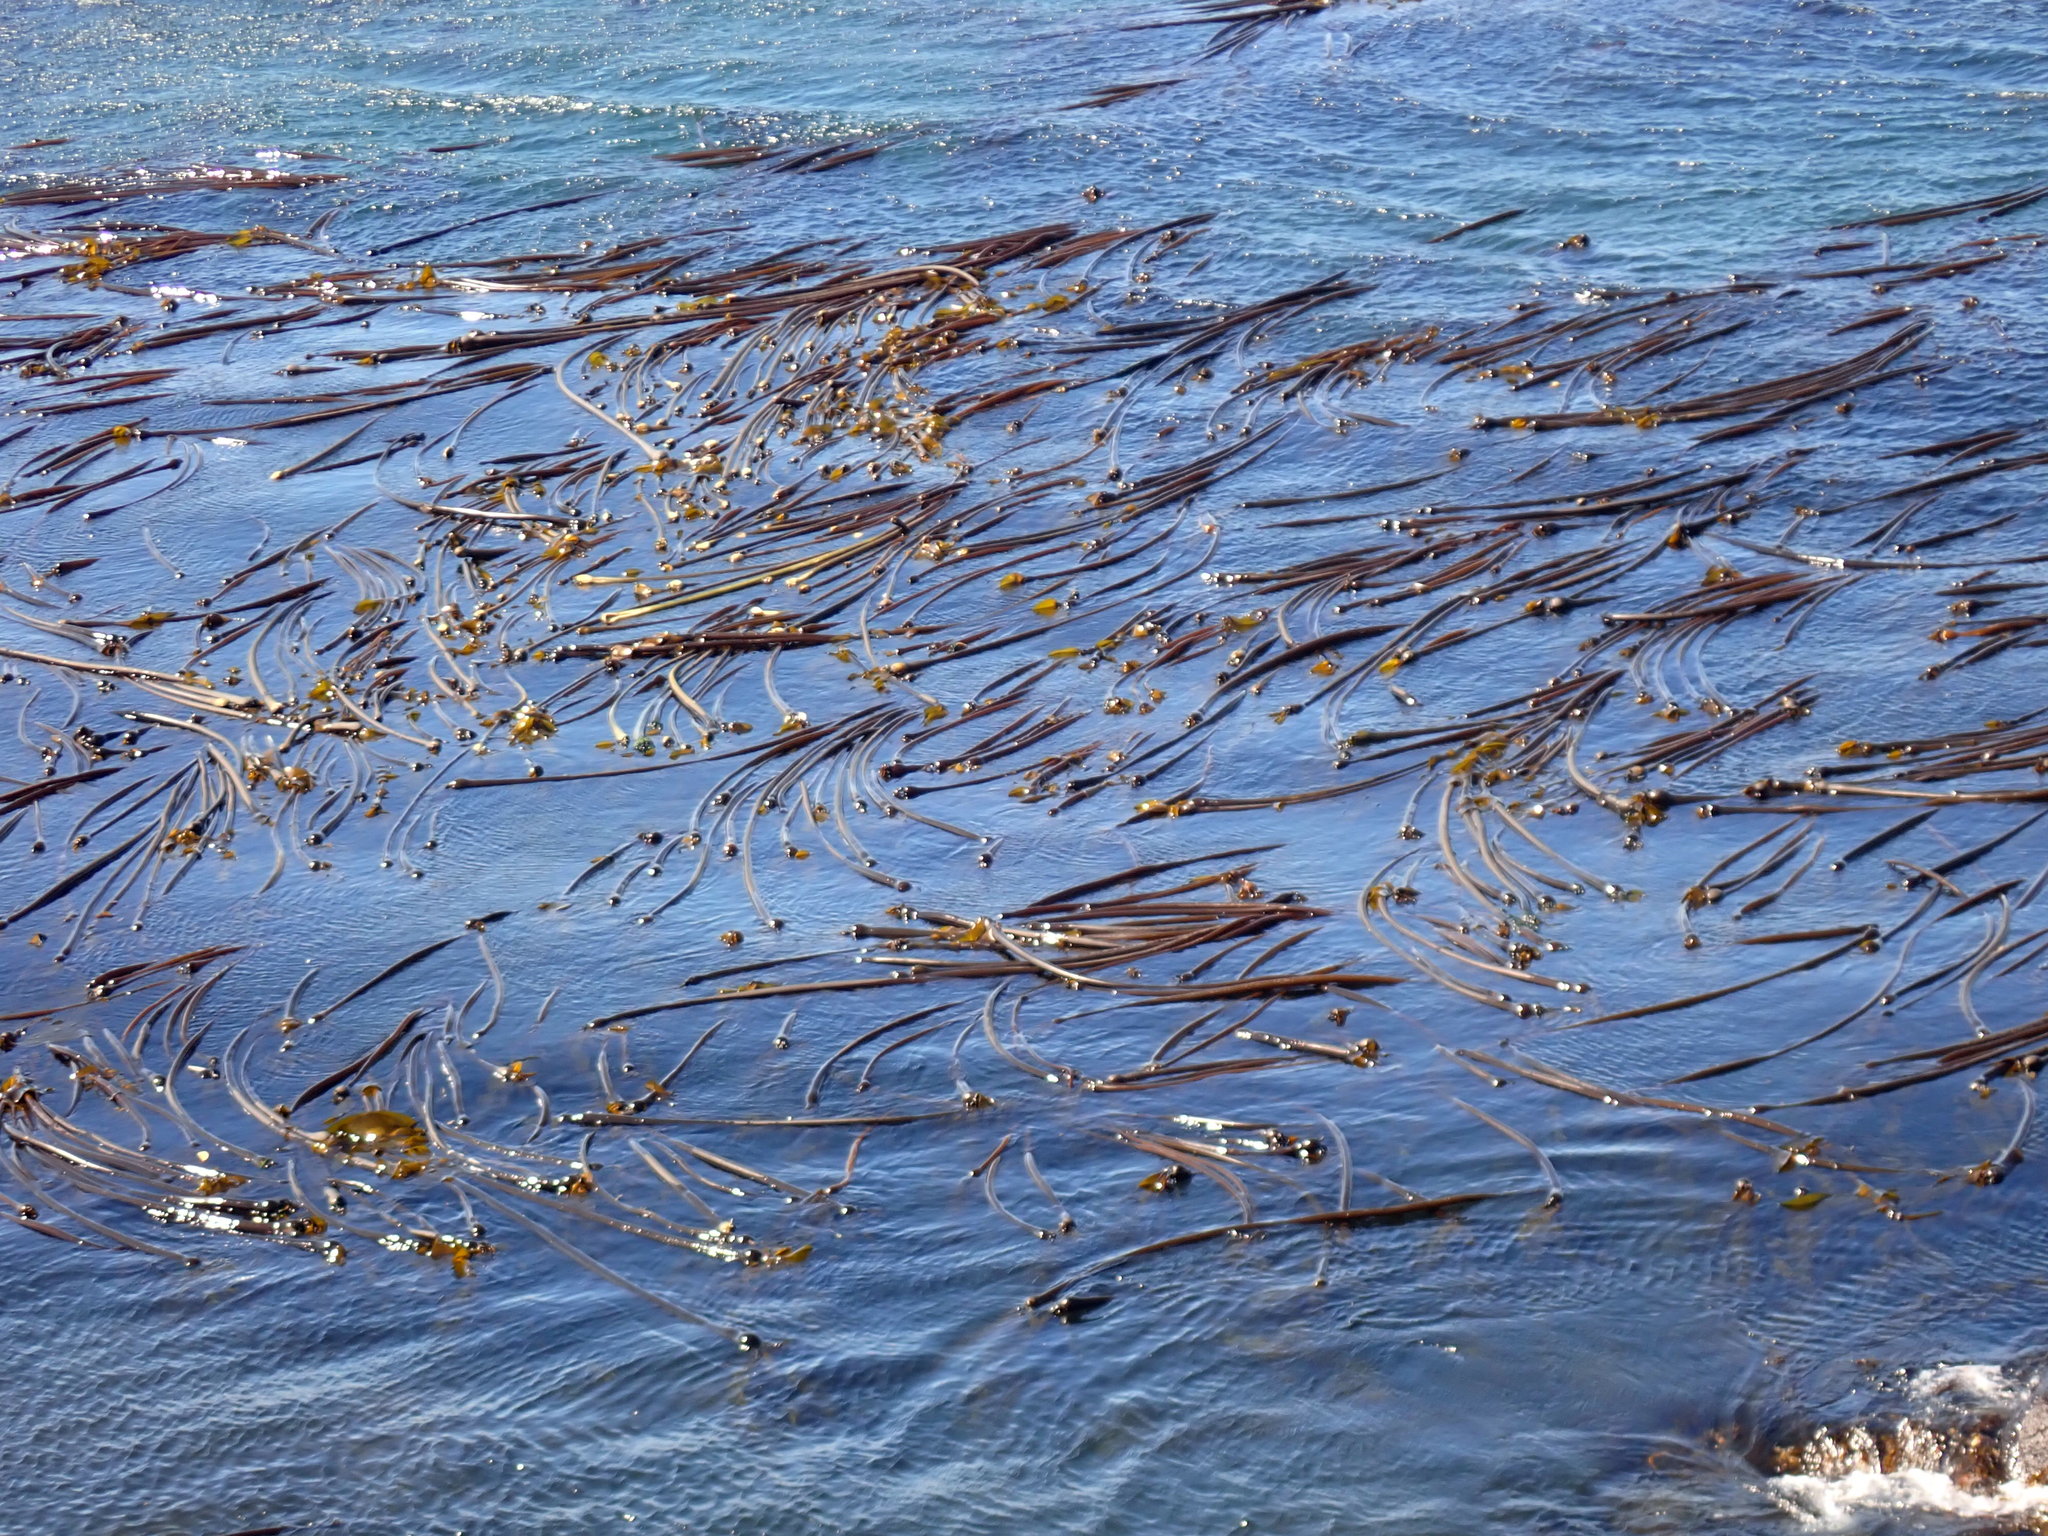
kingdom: Chromista
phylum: Ochrophyta
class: Phaeophyceae
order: Laminariales
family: Laminariaceae
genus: Nereocystis
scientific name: Nereocystis luetkeana
